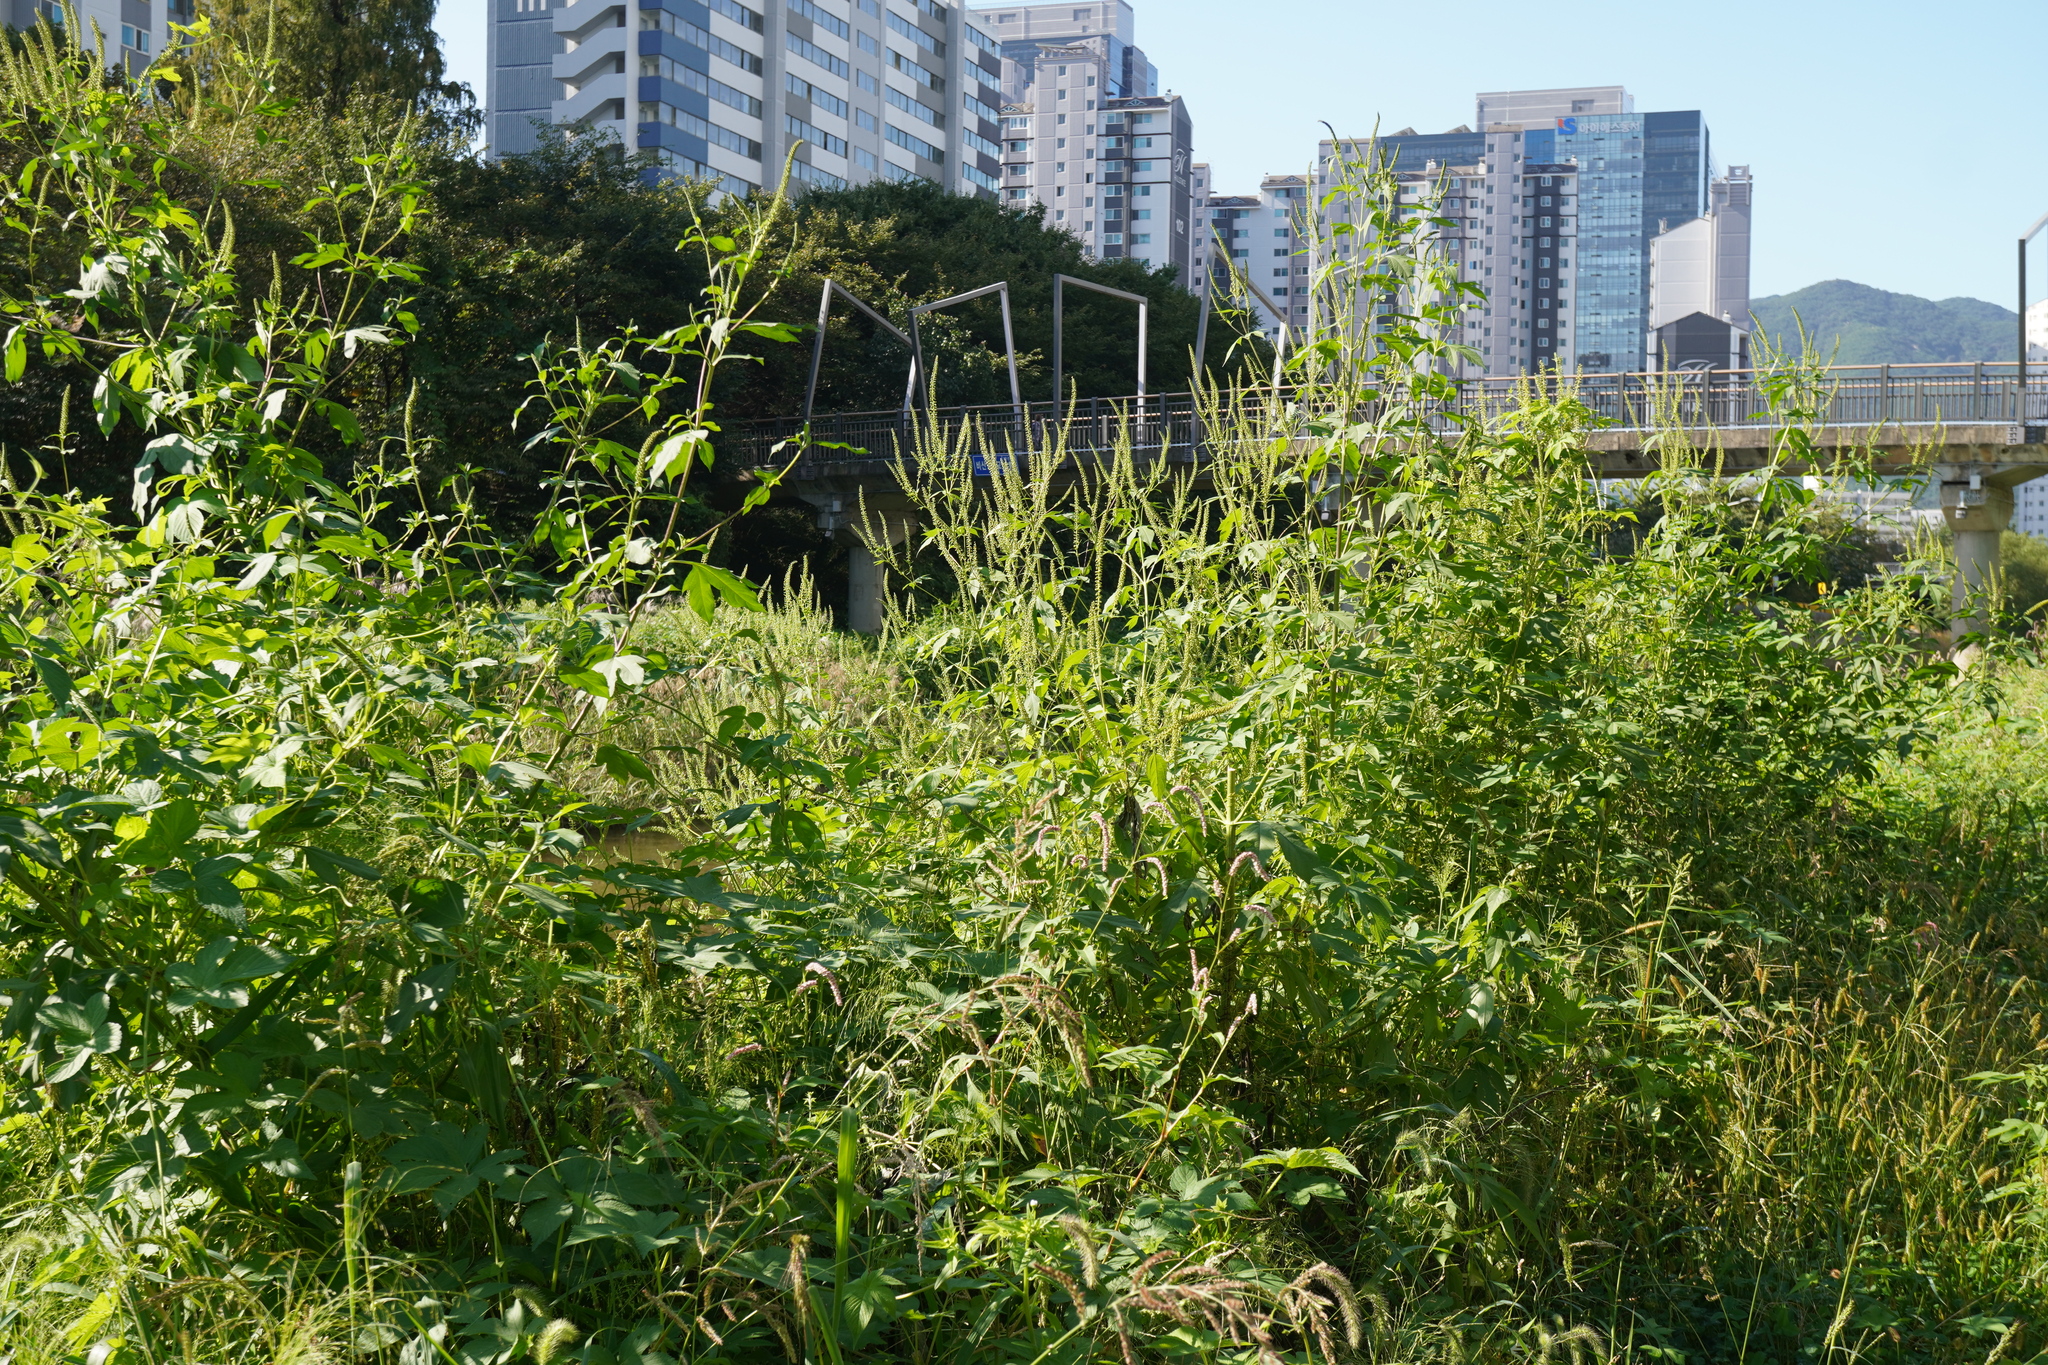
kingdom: Plantae
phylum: Tracheophyta
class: Magnoliopsida
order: Asterales
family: Asteraceae
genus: Ambrosia
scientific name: Ambrosia trifida
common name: Giant ragweed
